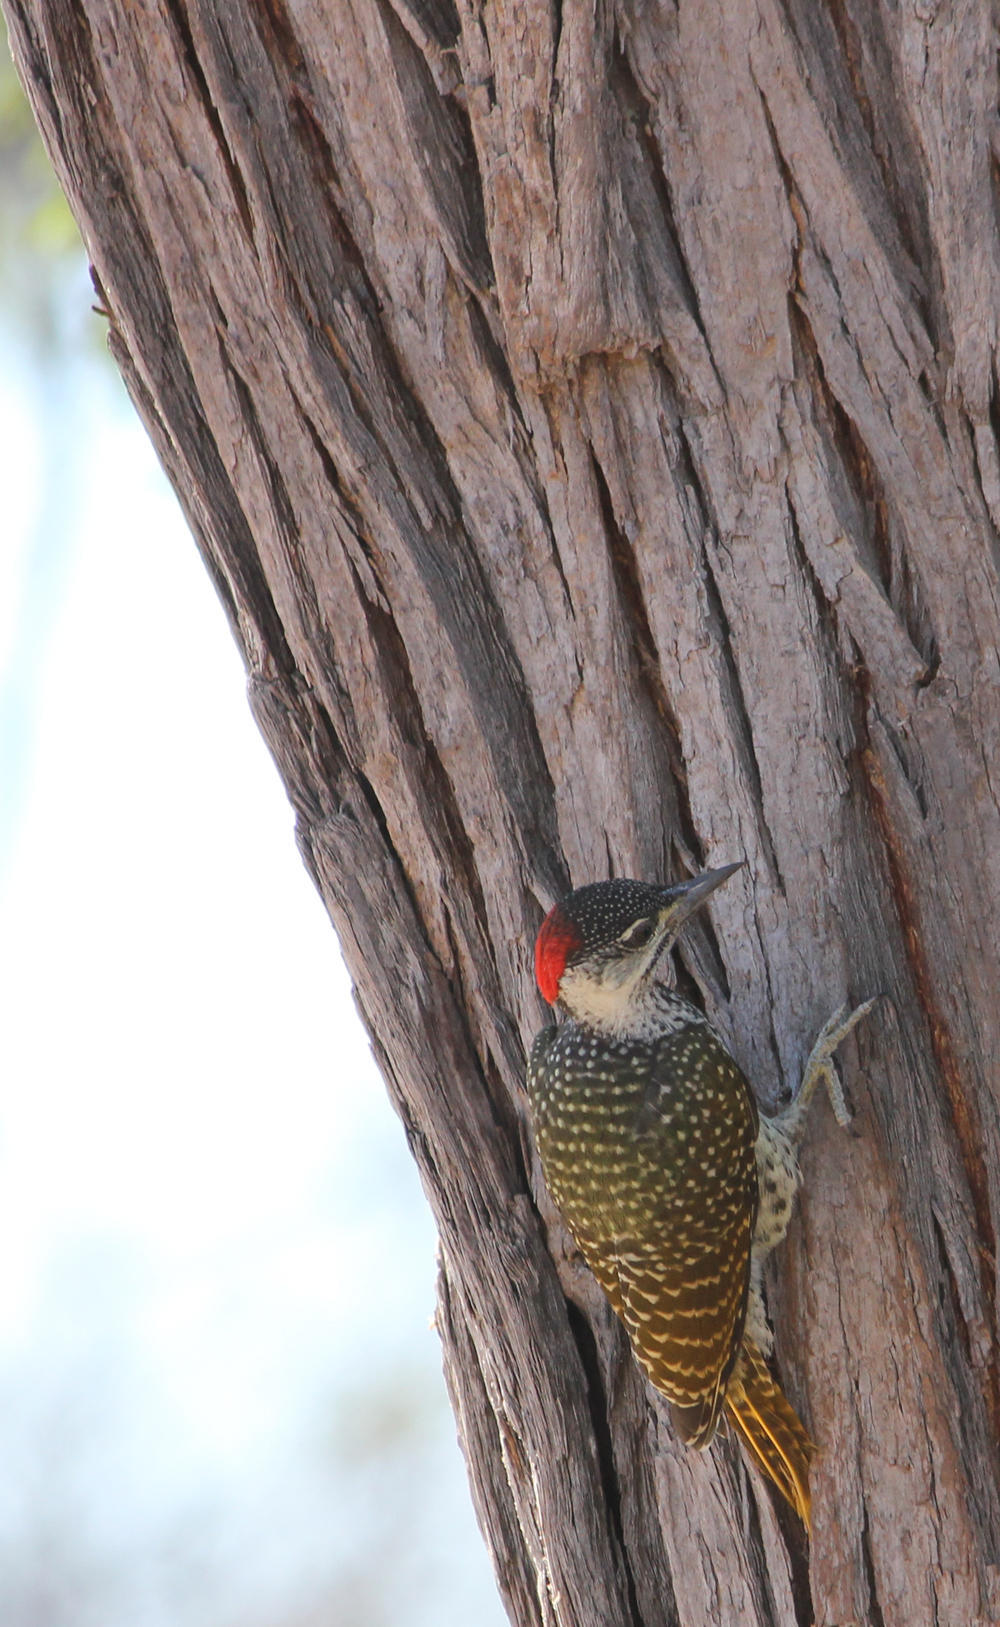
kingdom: Animalia
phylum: Chordata
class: Aves
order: Piciformes
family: Picidae
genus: Campethera
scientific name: Campethera abingoni
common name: Golden-tailed woodpecker
